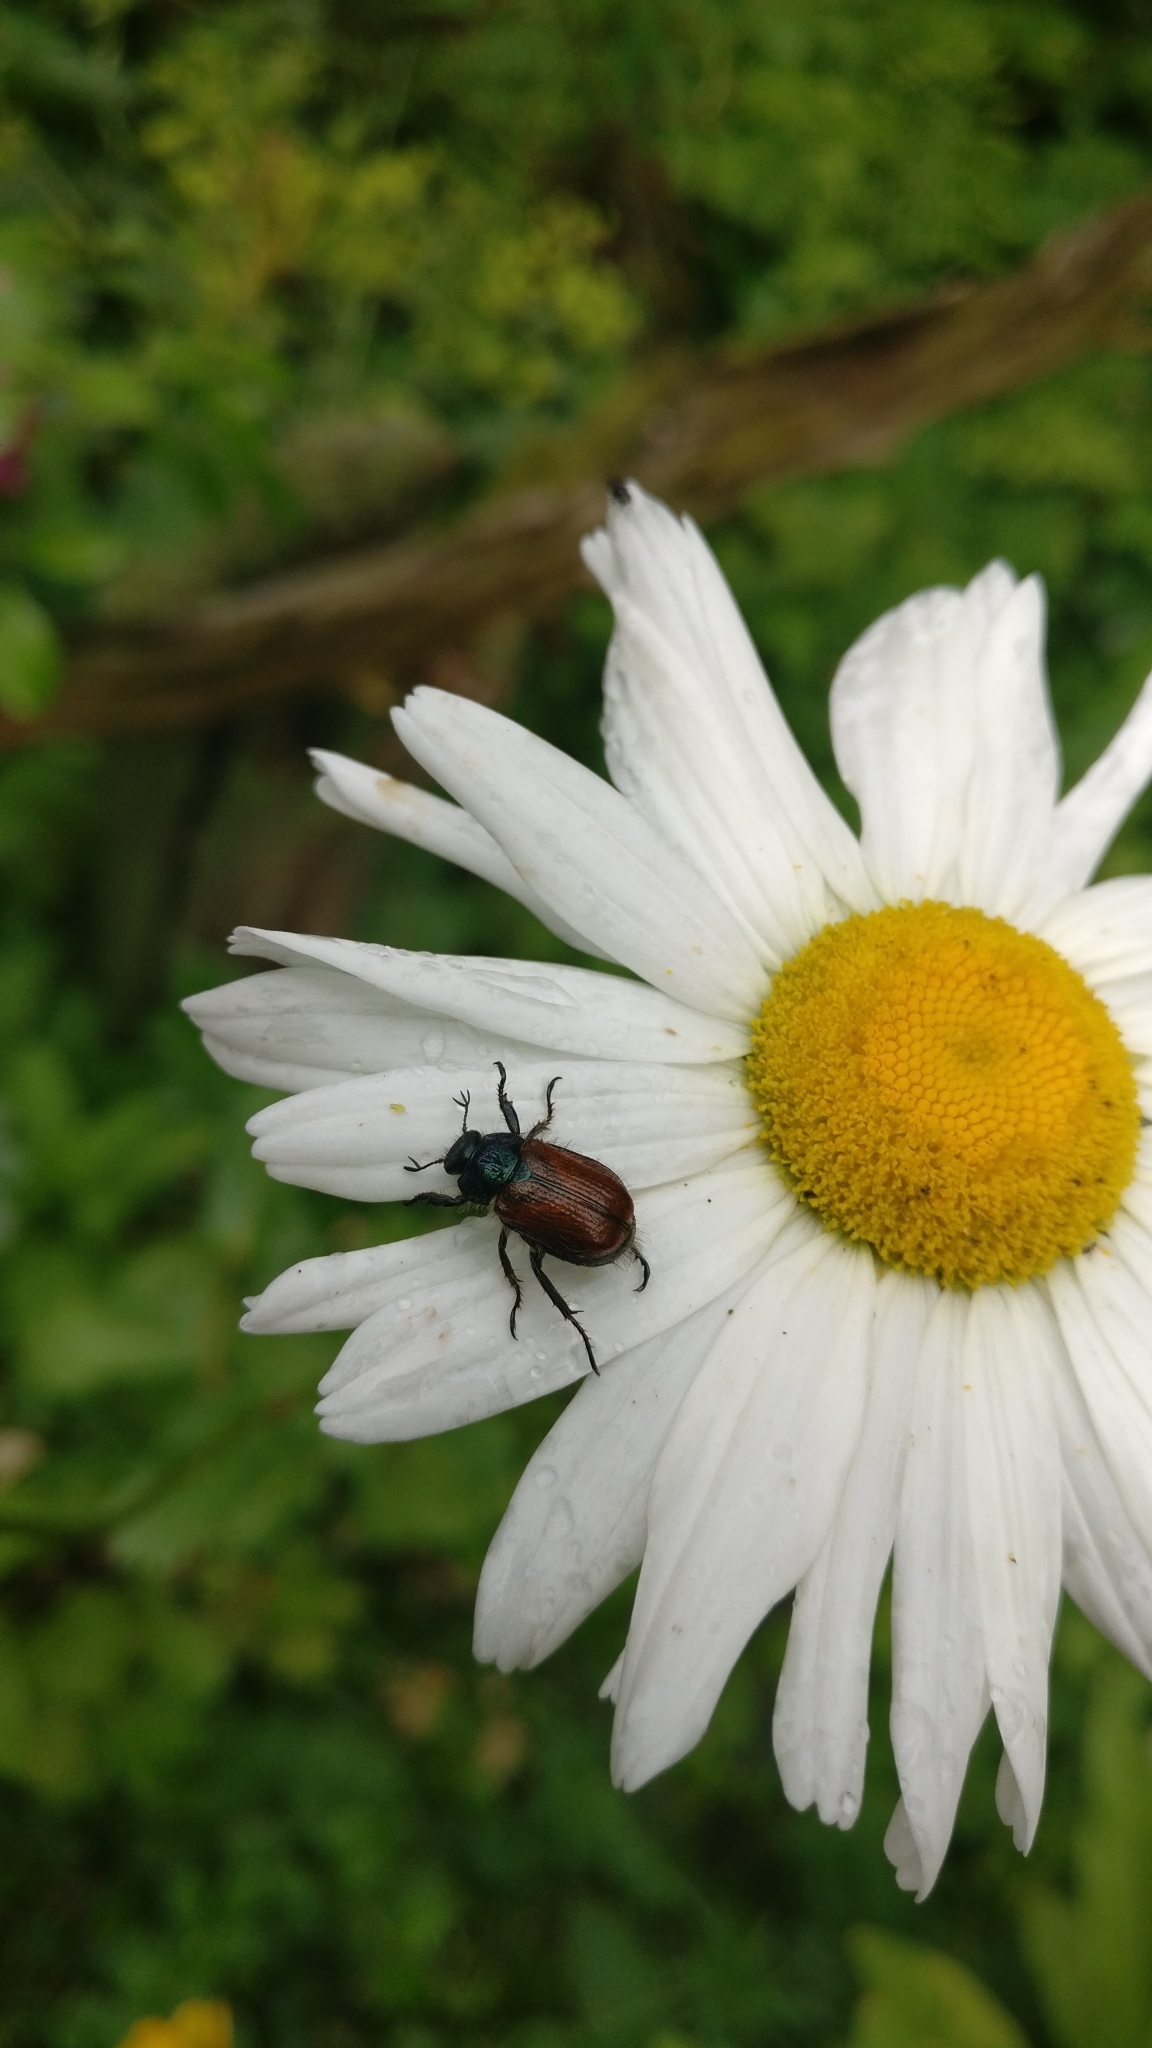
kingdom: Animalia
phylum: Arthropoda
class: Insecta
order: Coleoptera
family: Scarabaeidae
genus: Phyllopertha
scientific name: Phyllopertha horticola
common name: Garden chafer
